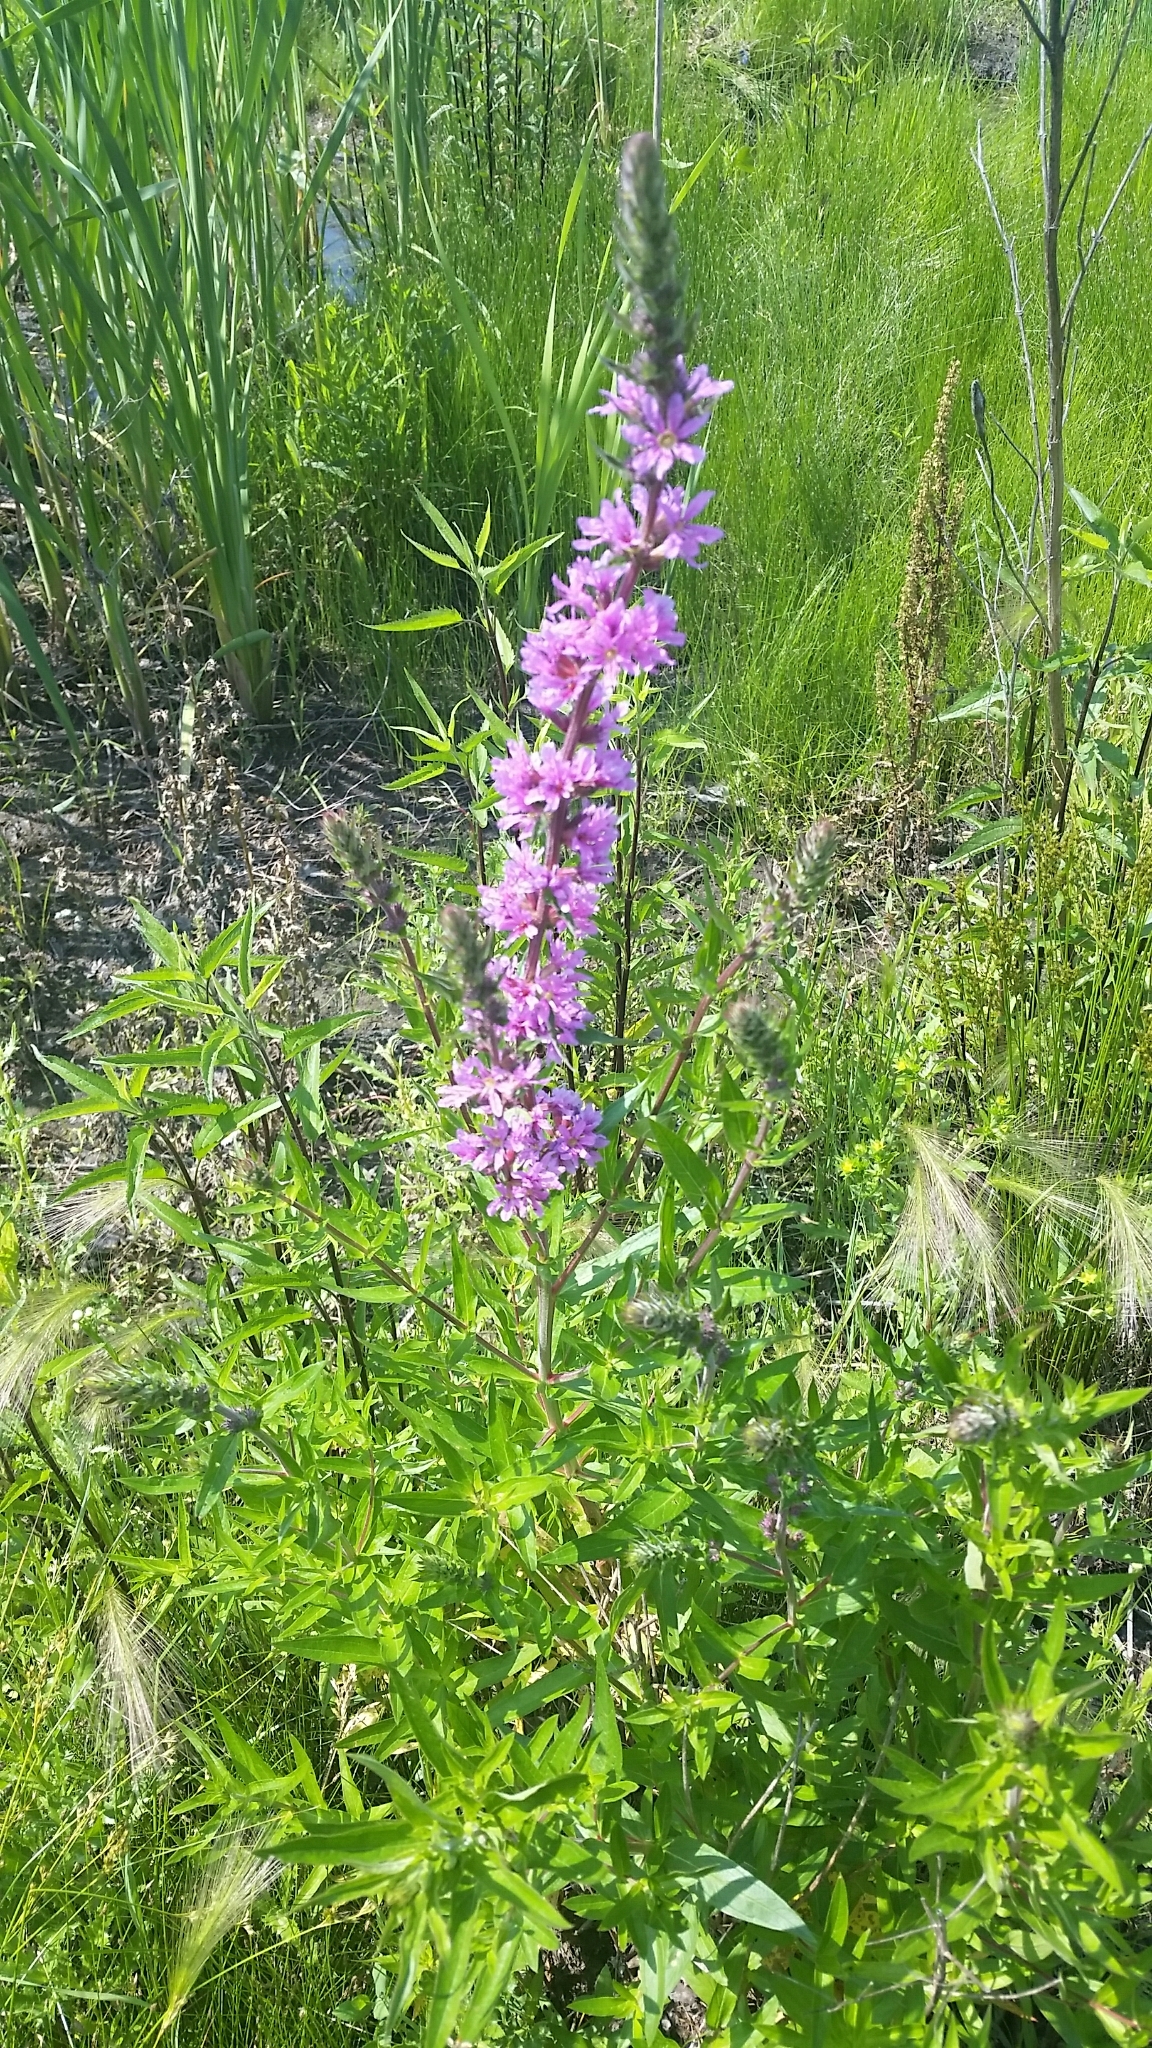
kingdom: Plantae
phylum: Tracheophyta
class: Magnoliopsida
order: Myrtales
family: Lythraceae
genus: Lythrum
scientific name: Lythrum salicaria
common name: Purple loosestrife
